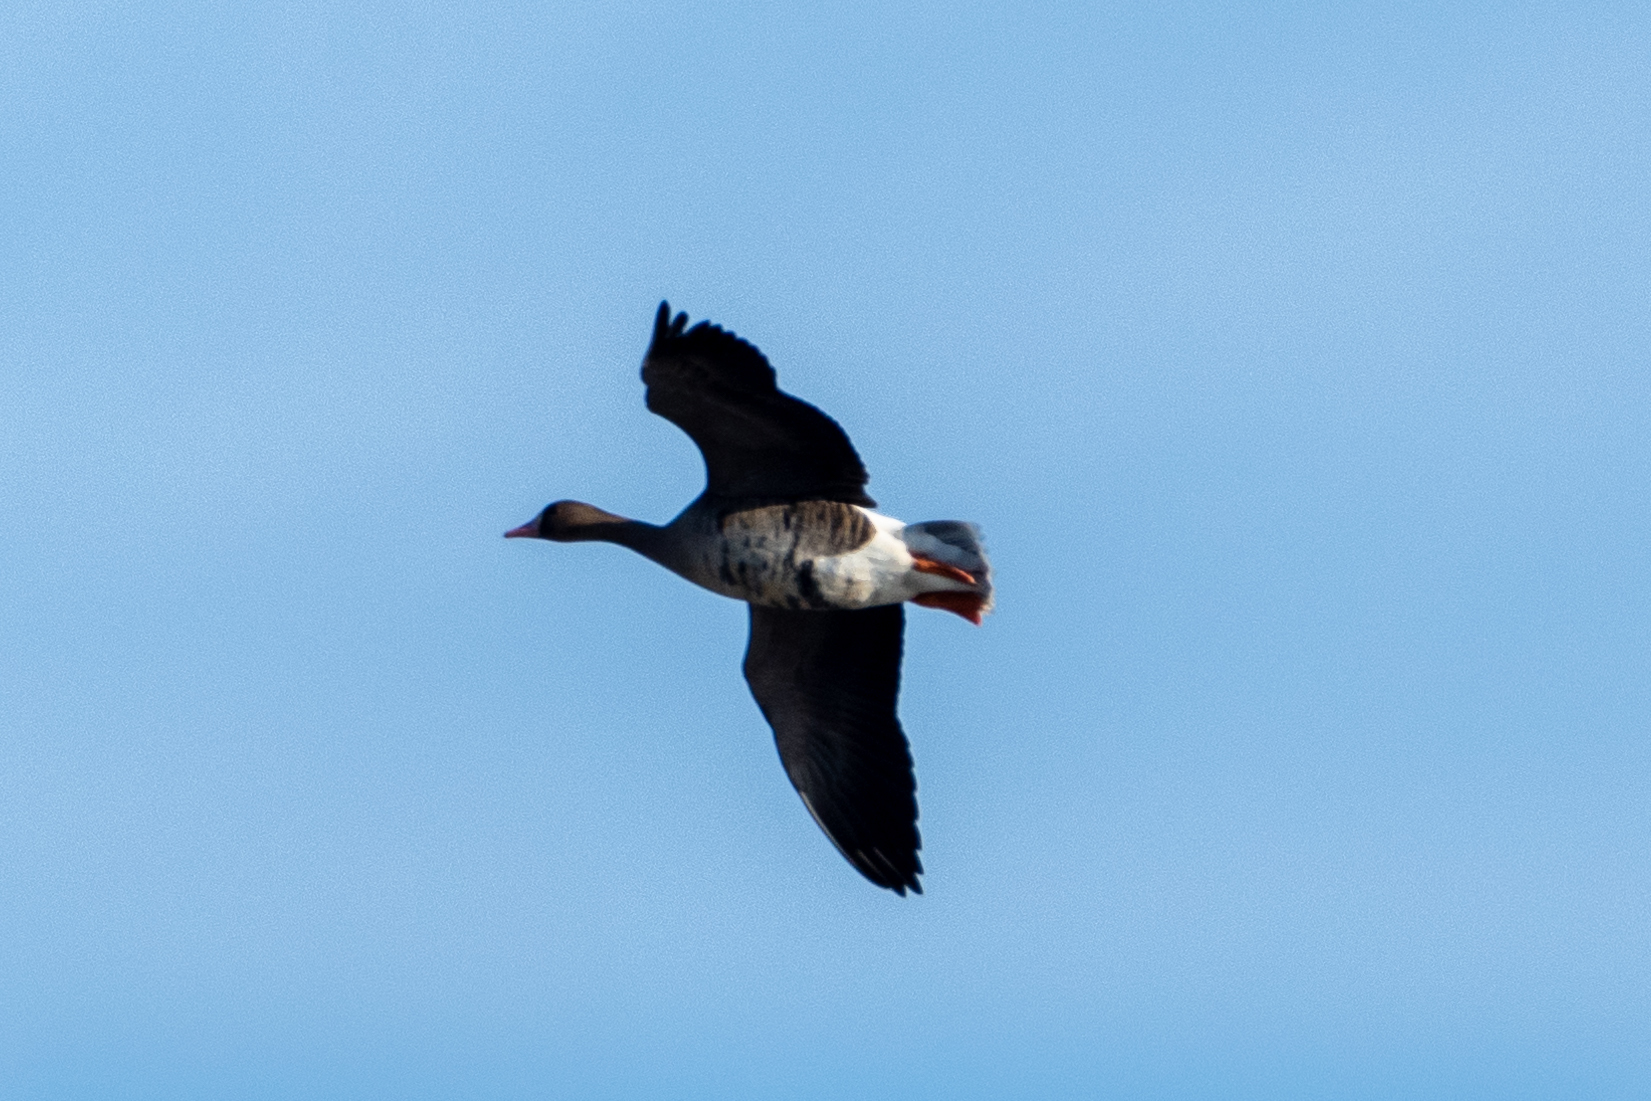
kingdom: Animalia
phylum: Chordata
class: Aves
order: Anseriformes
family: Anatidae
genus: Anser
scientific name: Anser albifrons
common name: Greater white-fronted goose
